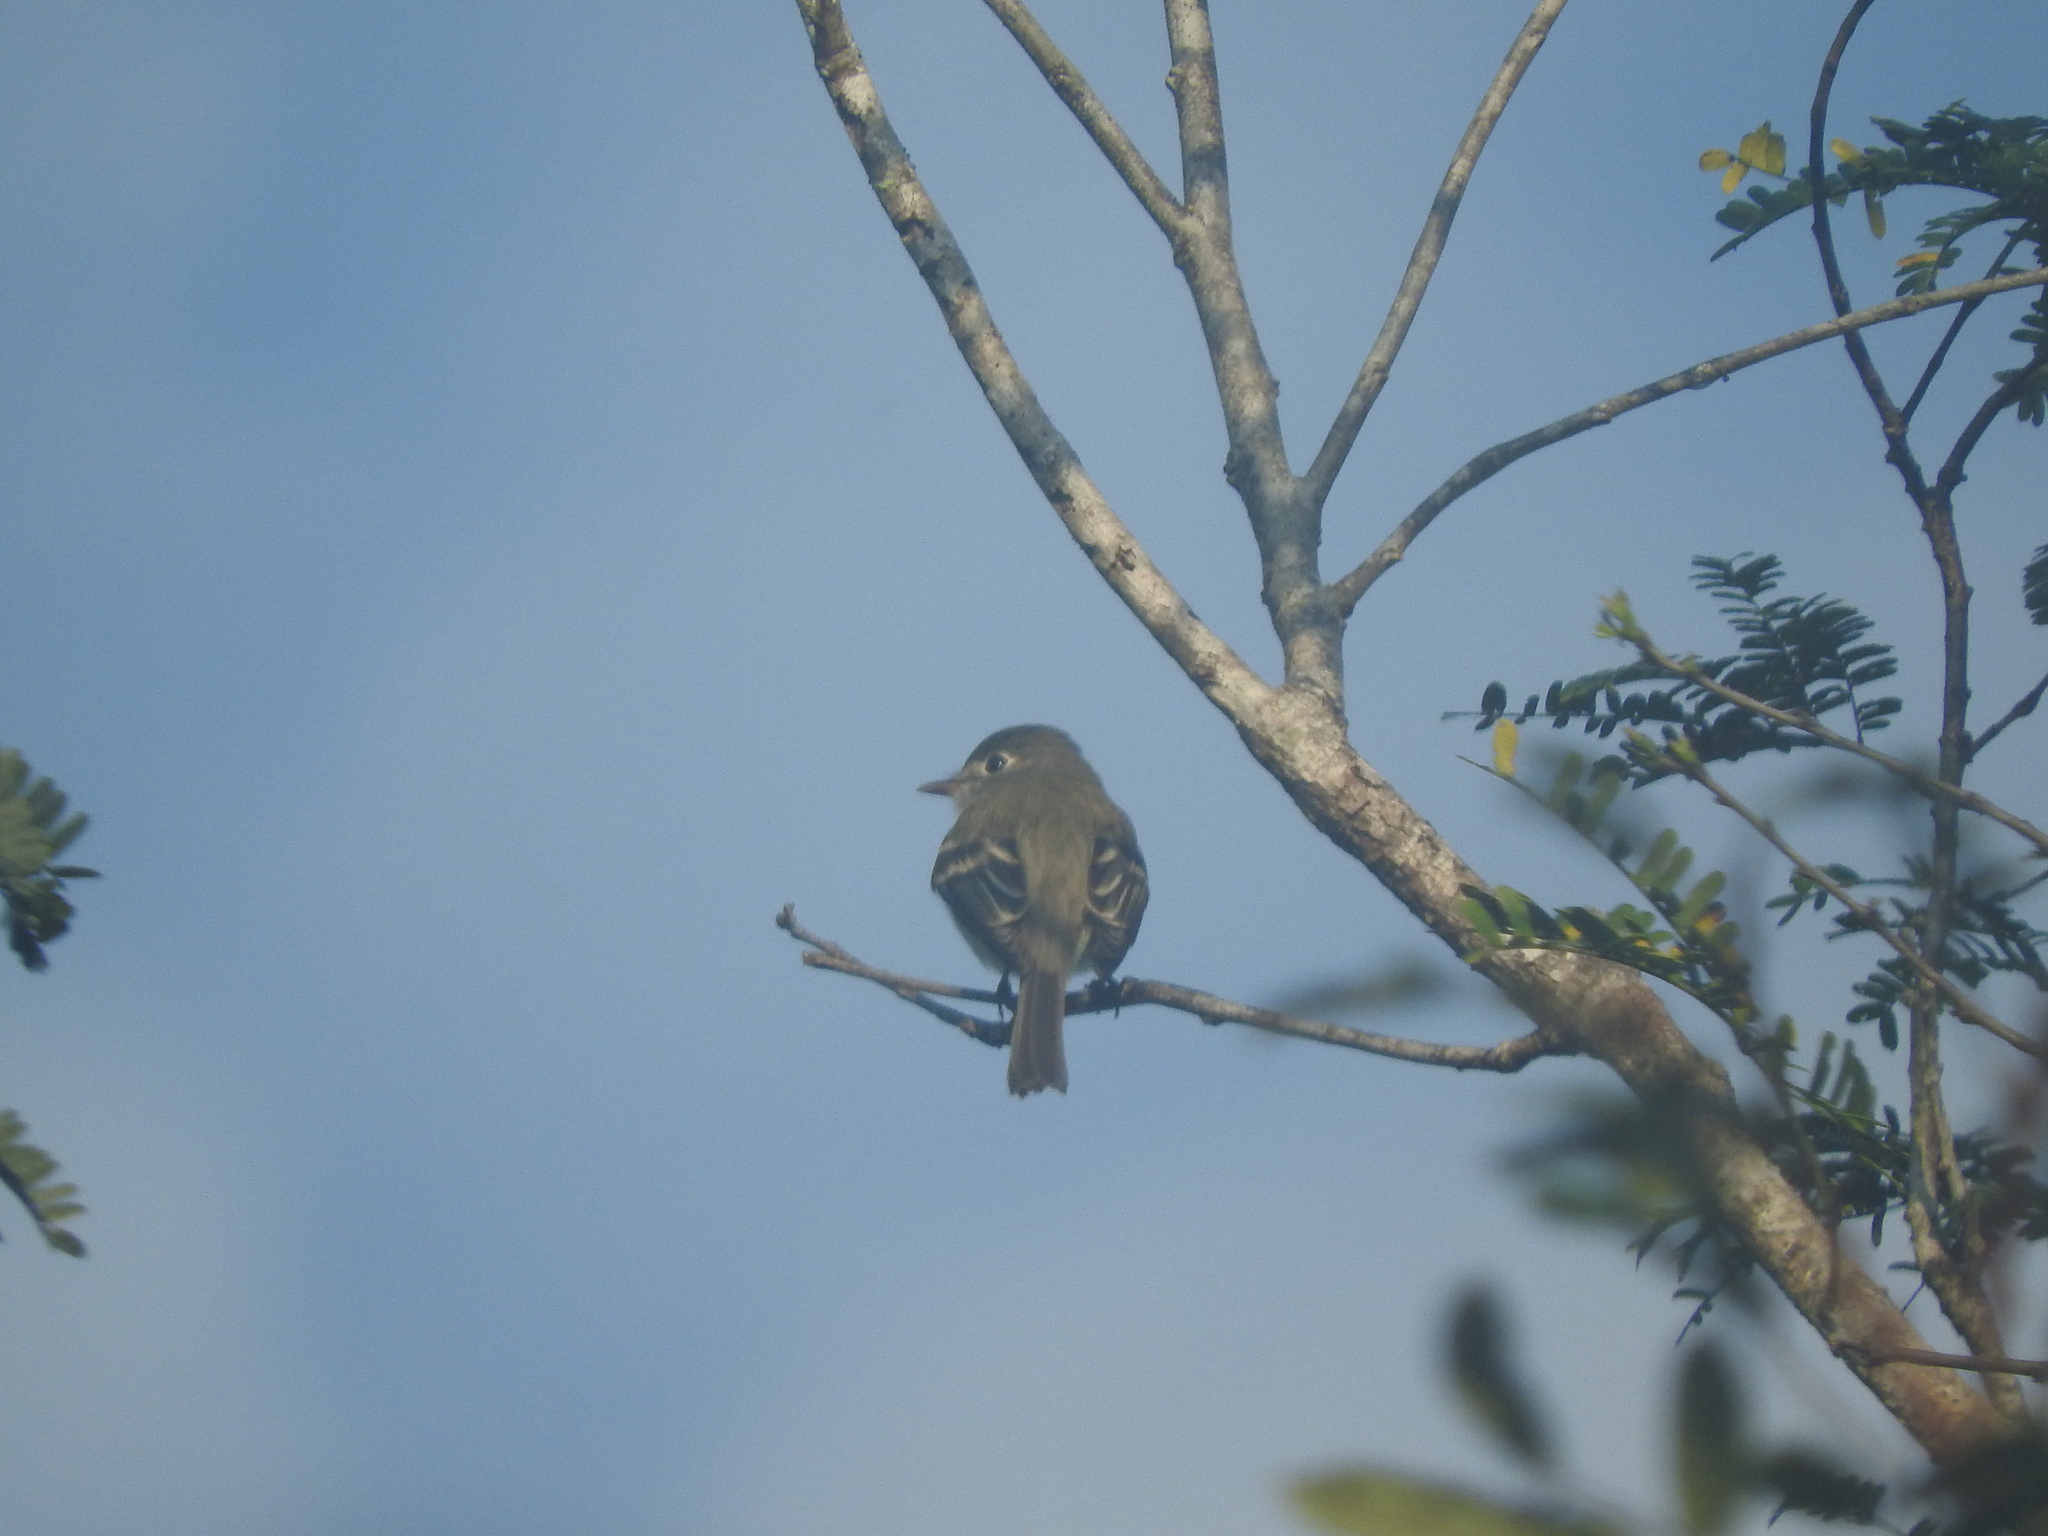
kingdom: Animalia
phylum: Chordata
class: Aves
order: Passeriformes
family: Tyrannidae
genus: Contopus
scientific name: Contopus virens
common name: Eastern wood-pewee
